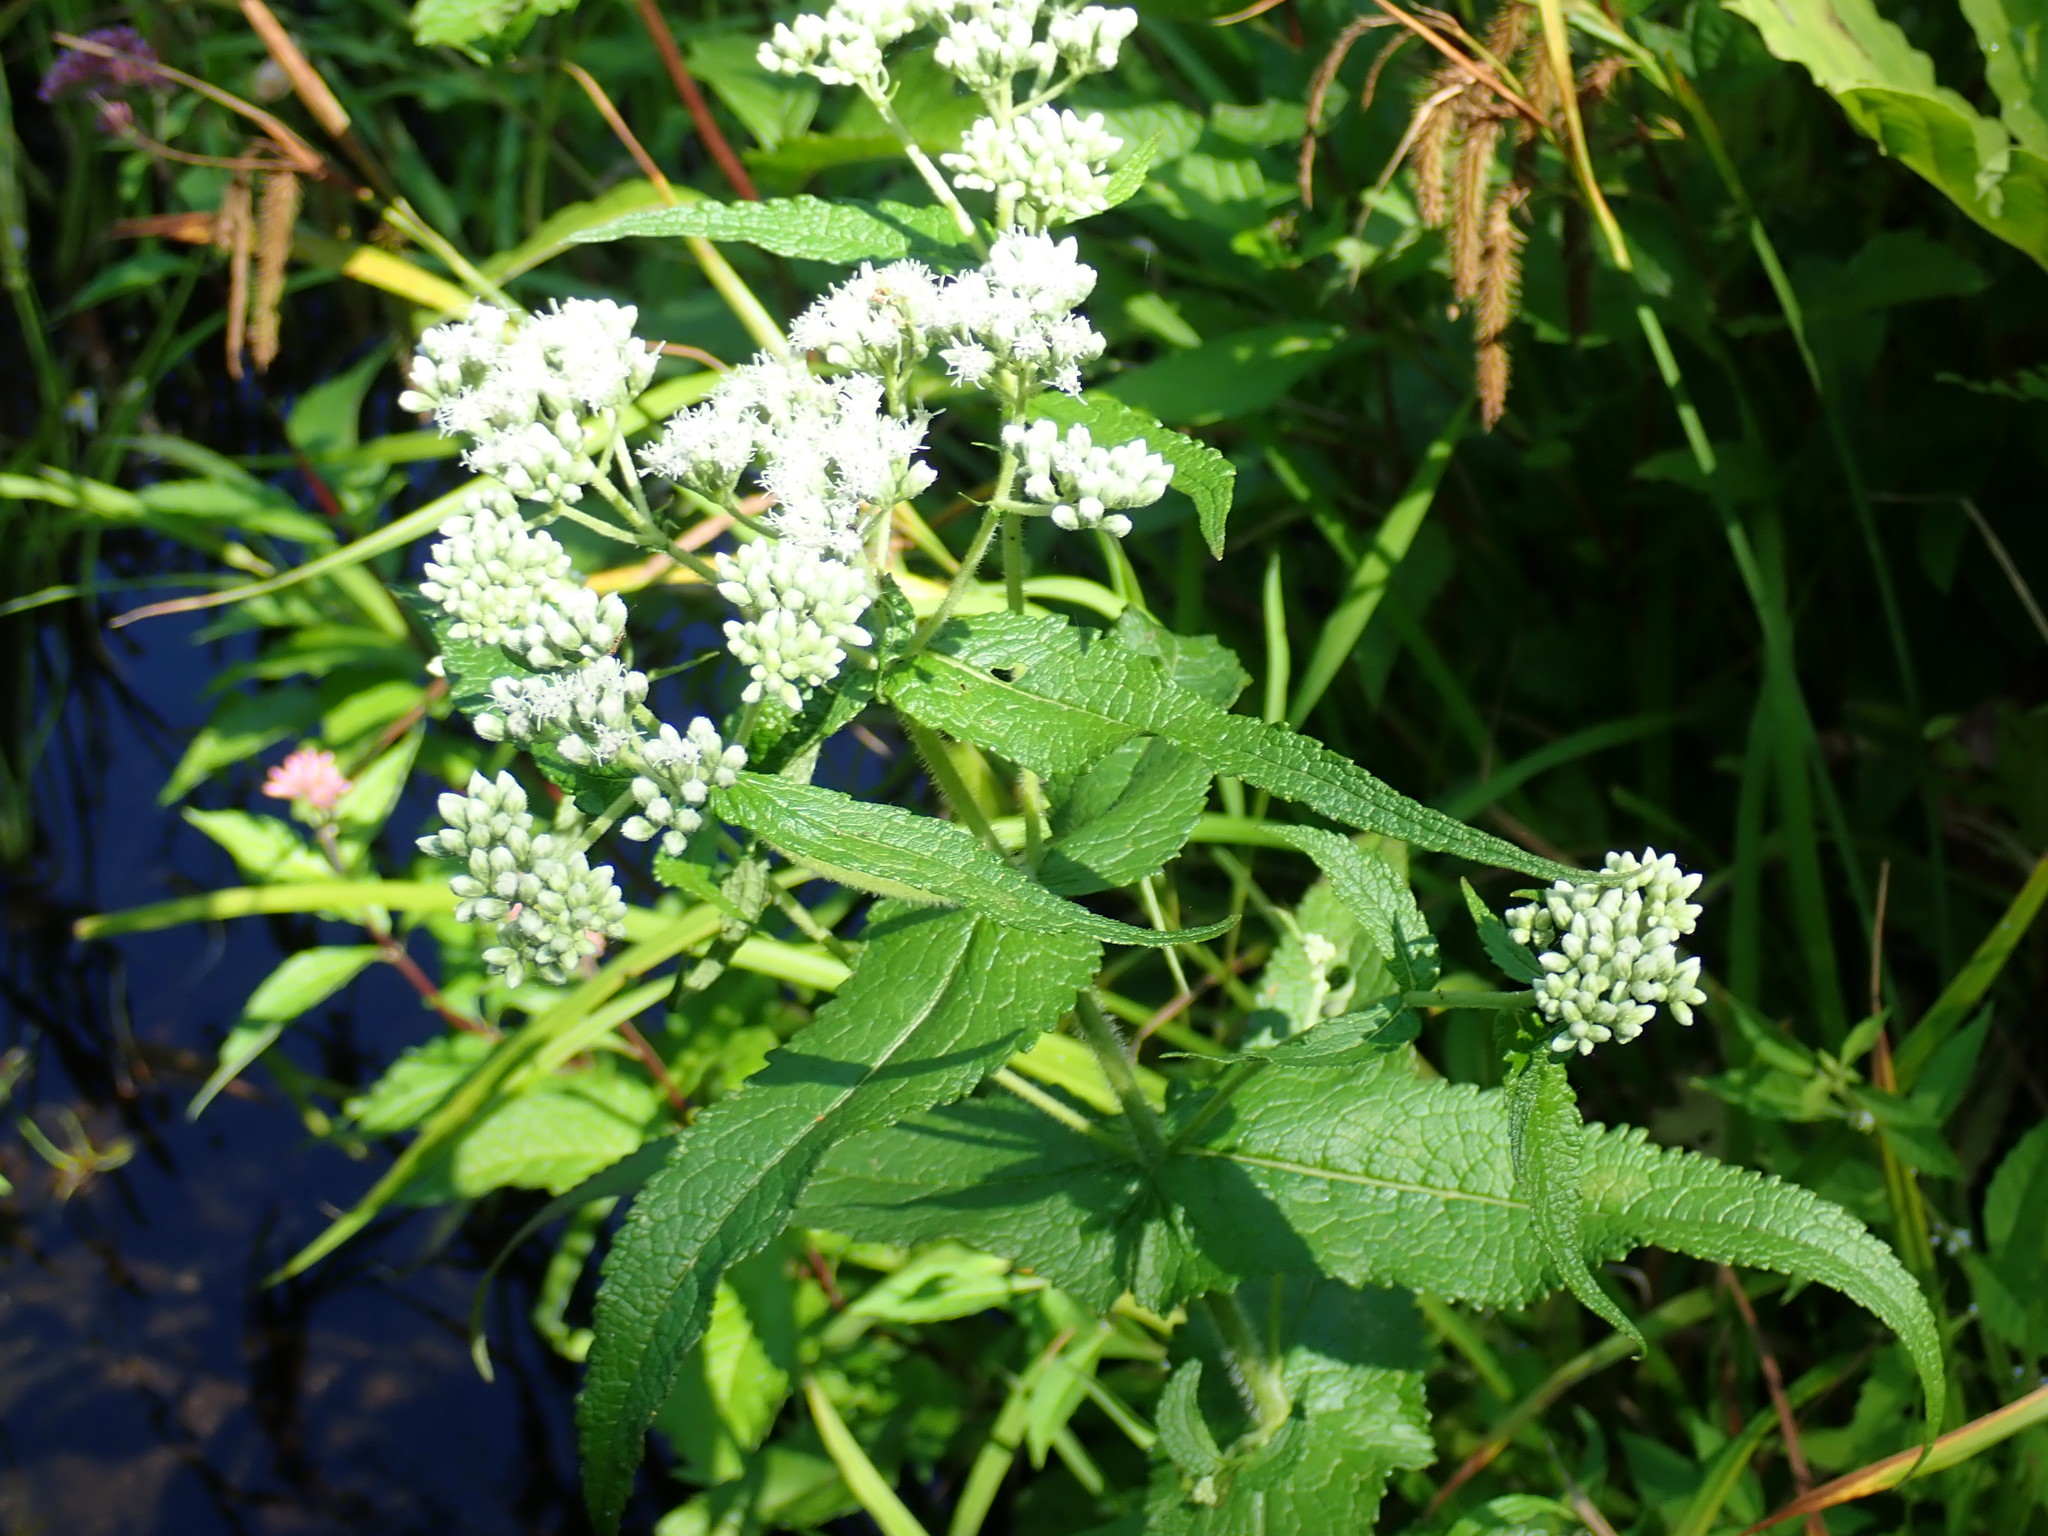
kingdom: Plantae
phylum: Tracheophyta
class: Magnoliopsida
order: Asterales
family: Asteraceae
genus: Eupatorium
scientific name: Eupatorium perfoliatum
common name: Boneset
